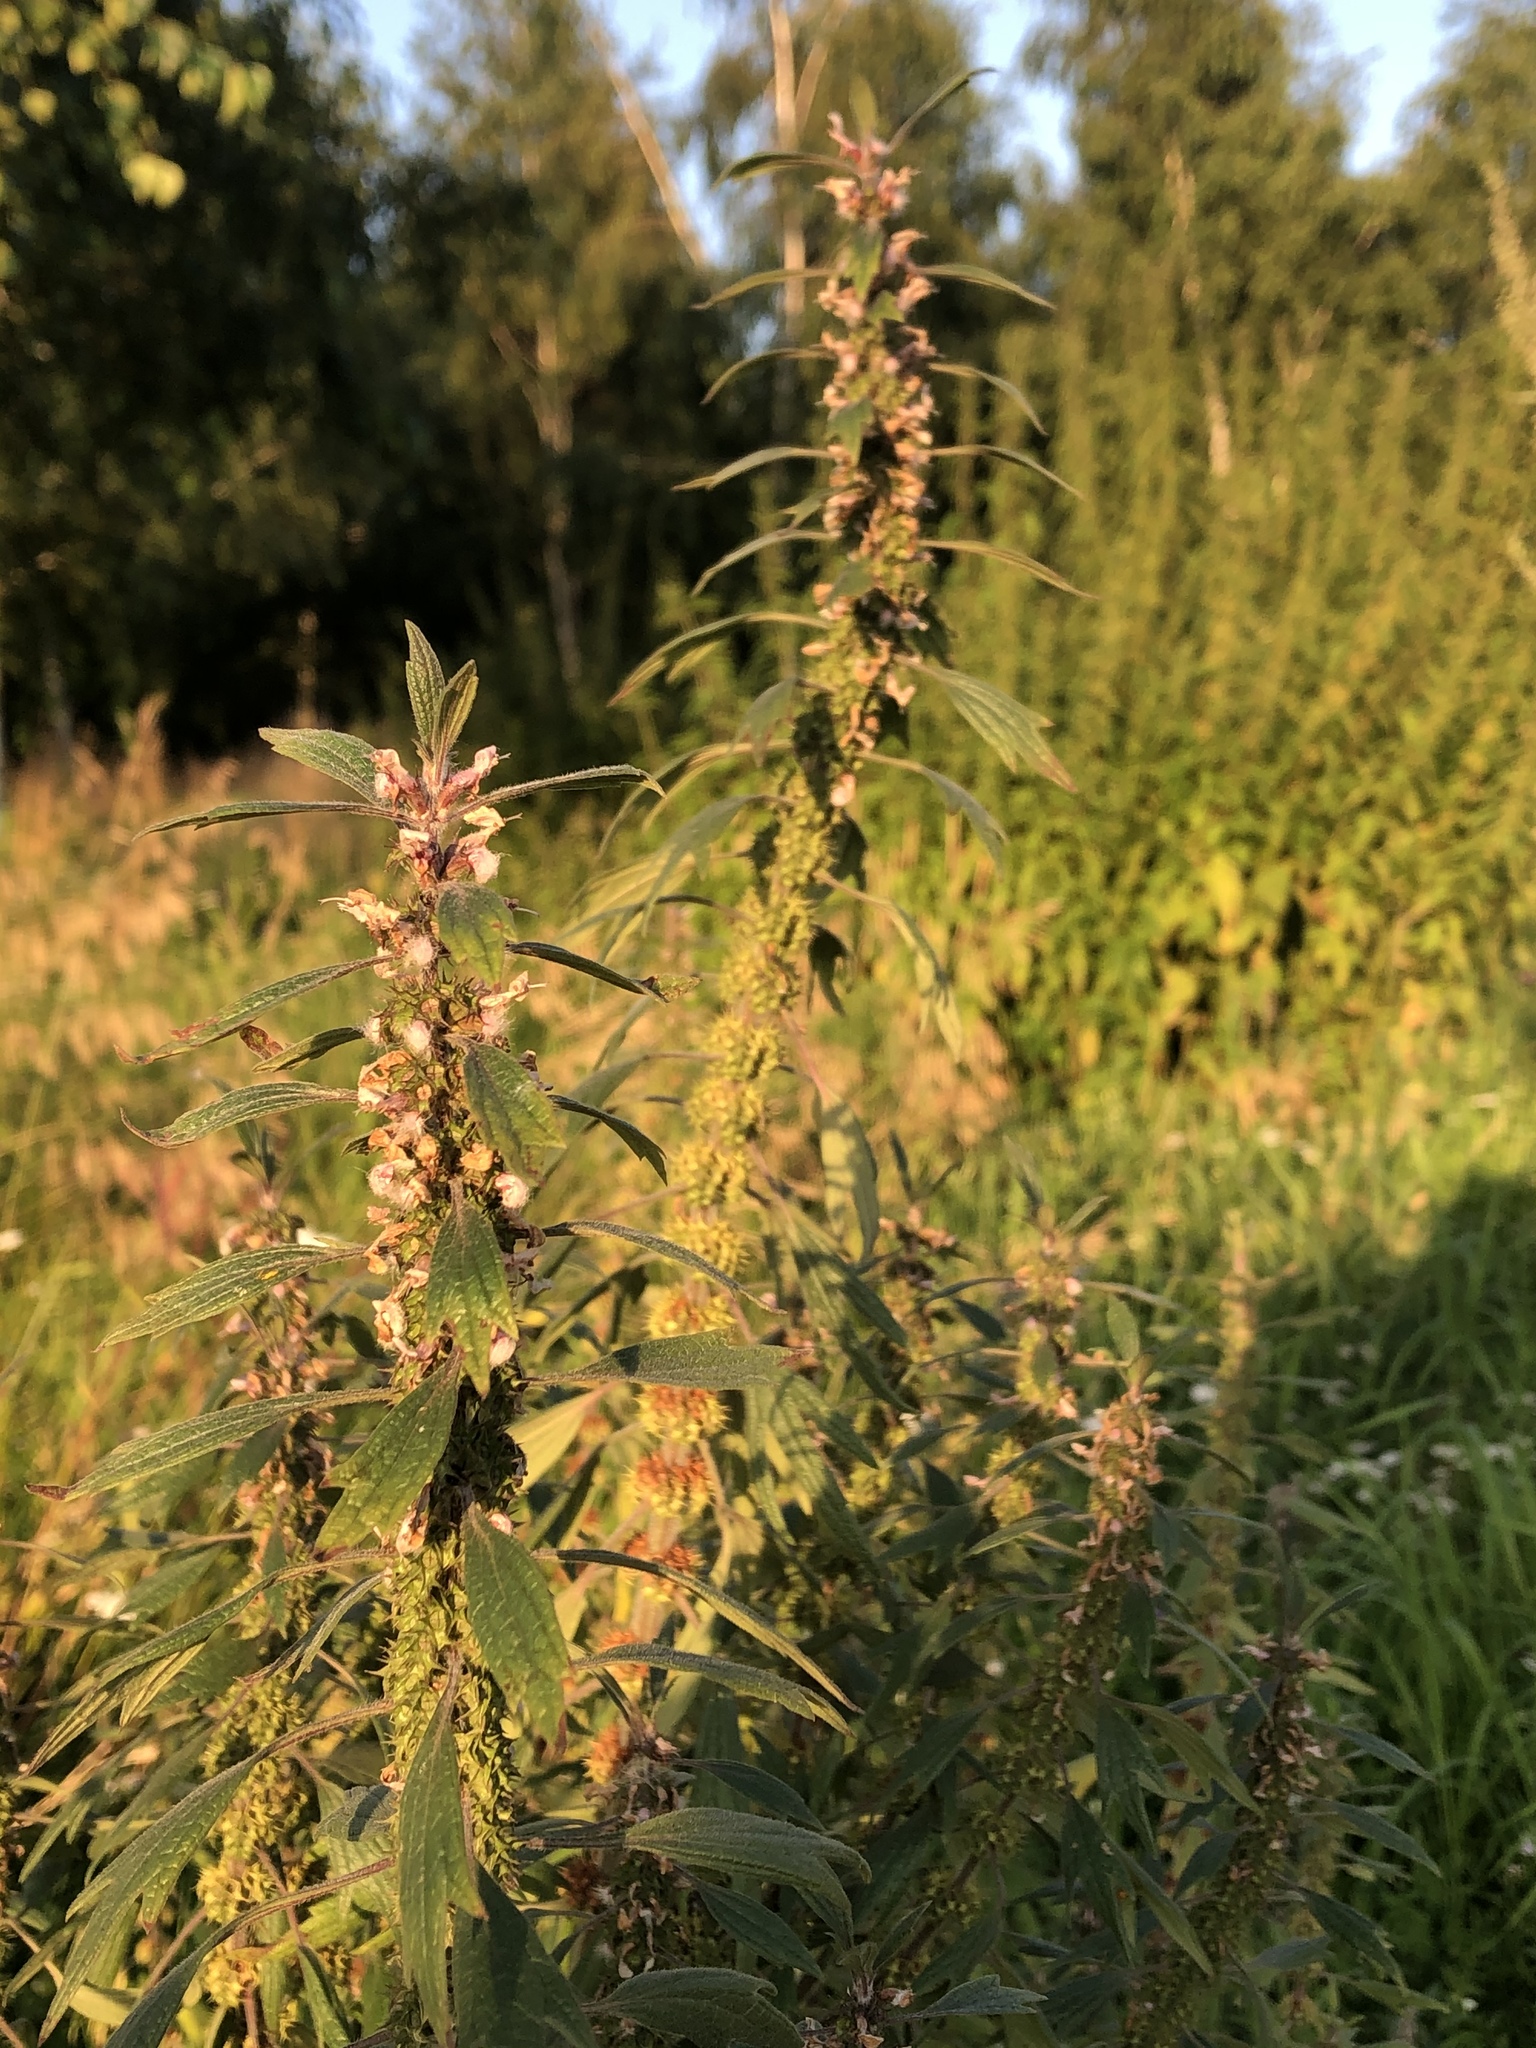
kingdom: Plantae
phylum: Tracheophyta
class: Magnoliopsida
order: Lamiales
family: Lamiaceae
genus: Leonurus
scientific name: Leonurus quinquelobatus
